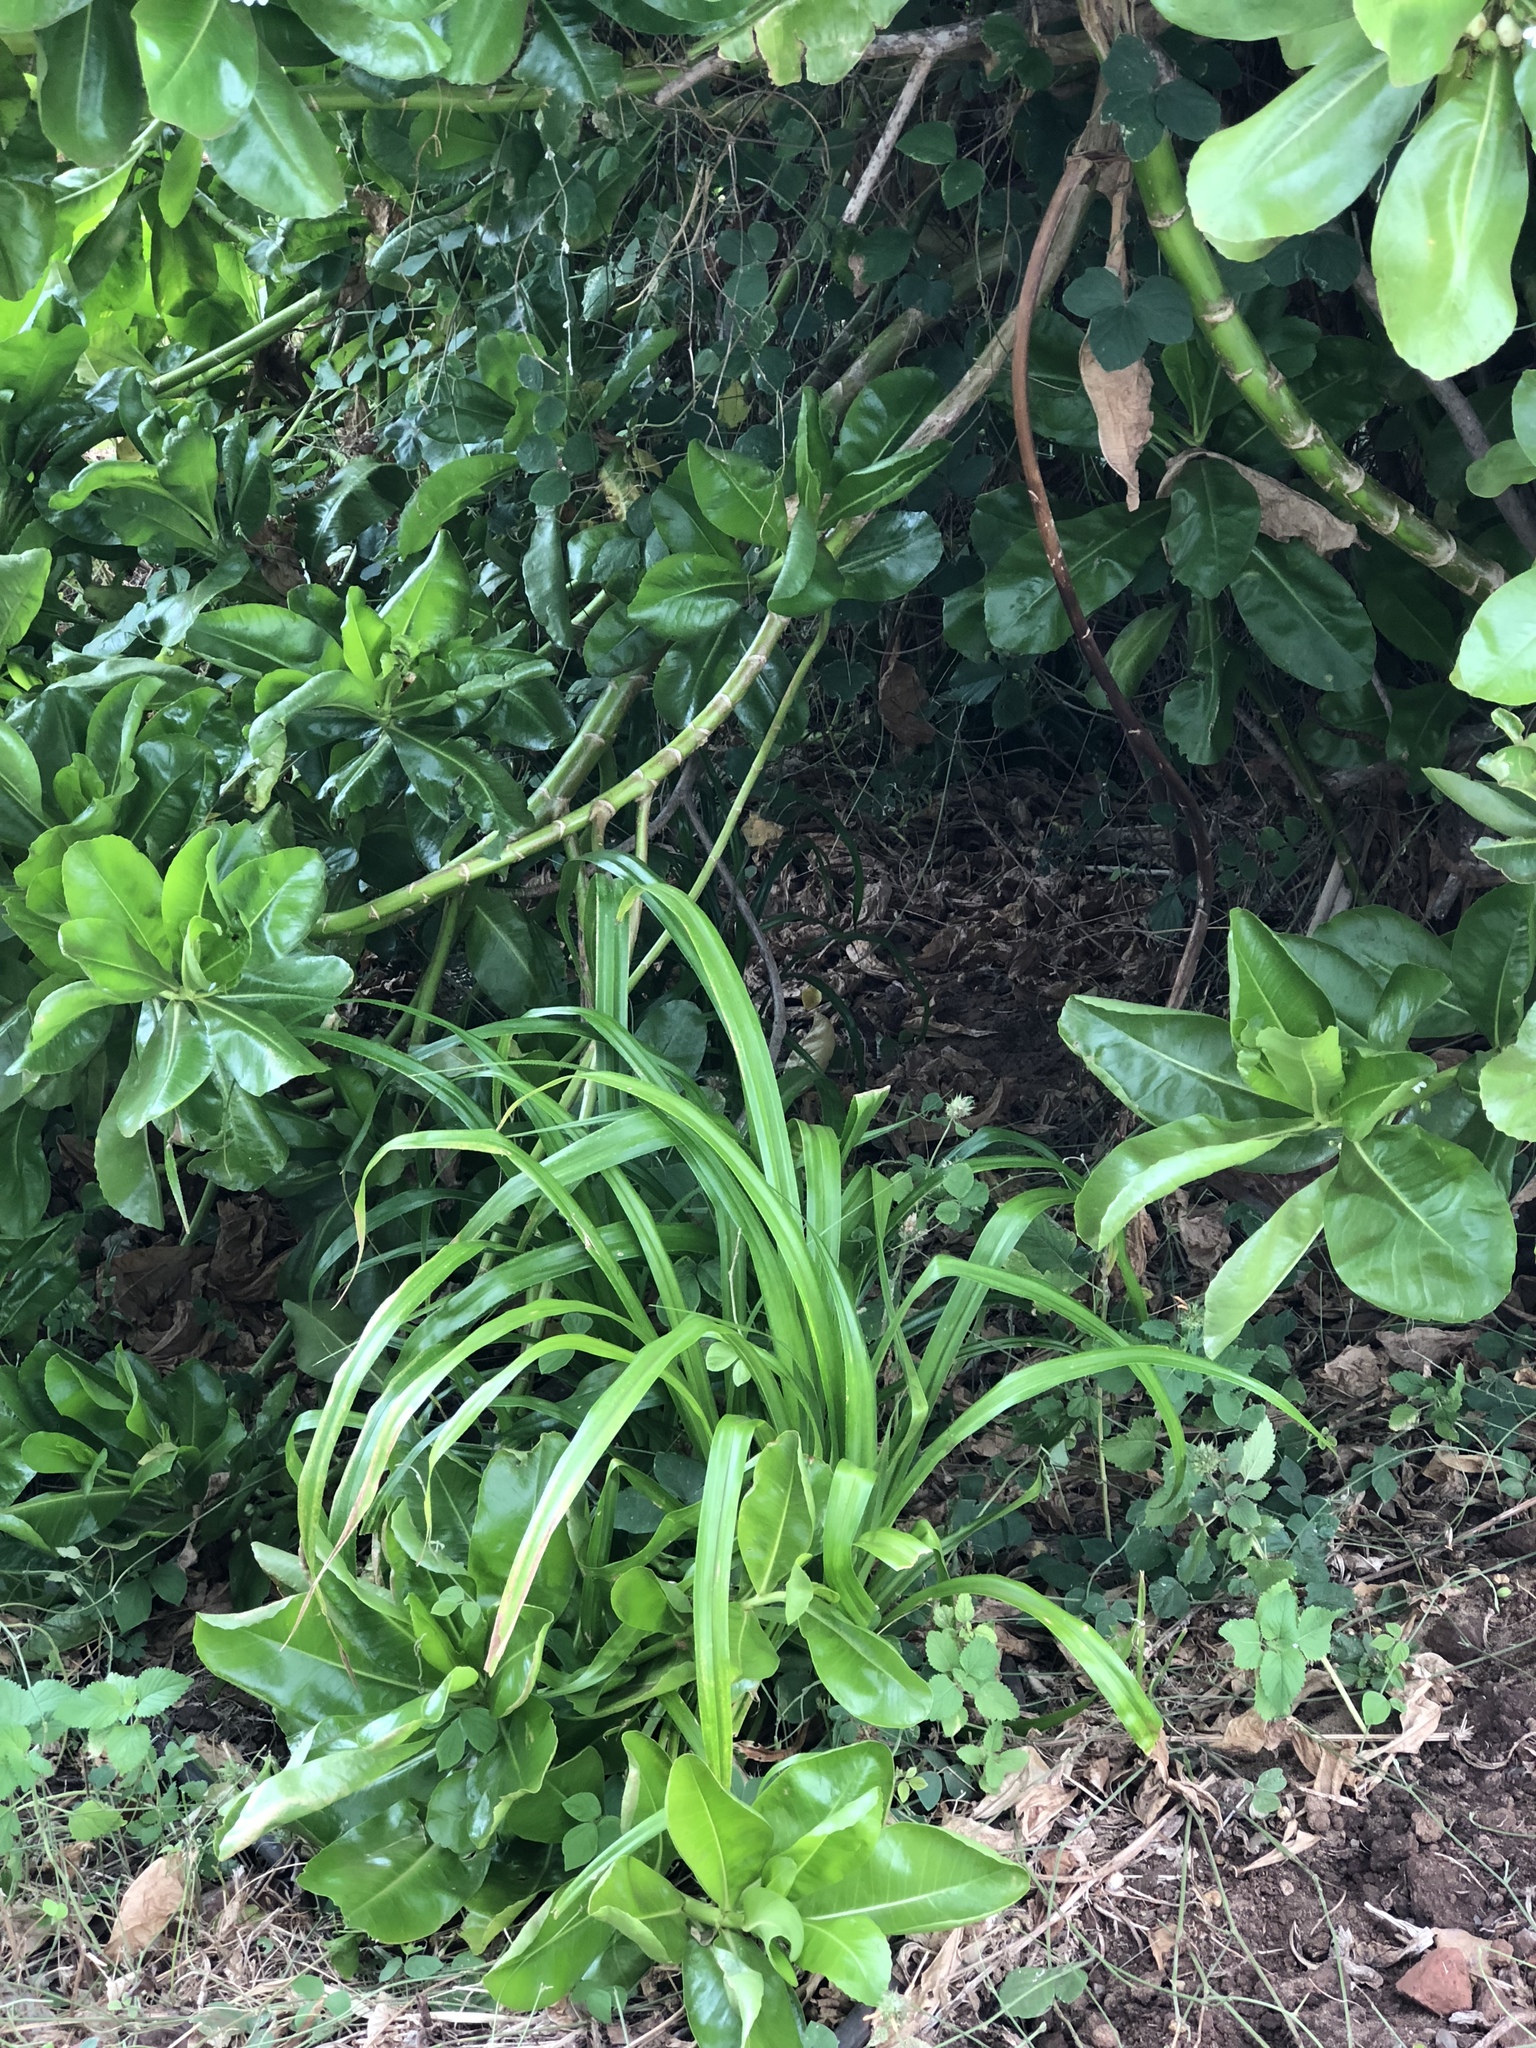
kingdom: Plantae
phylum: Tracheophyta
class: Liliopsida
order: Pandanales
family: Pandanaceae
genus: Pandanus
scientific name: Pandanus tectorius
